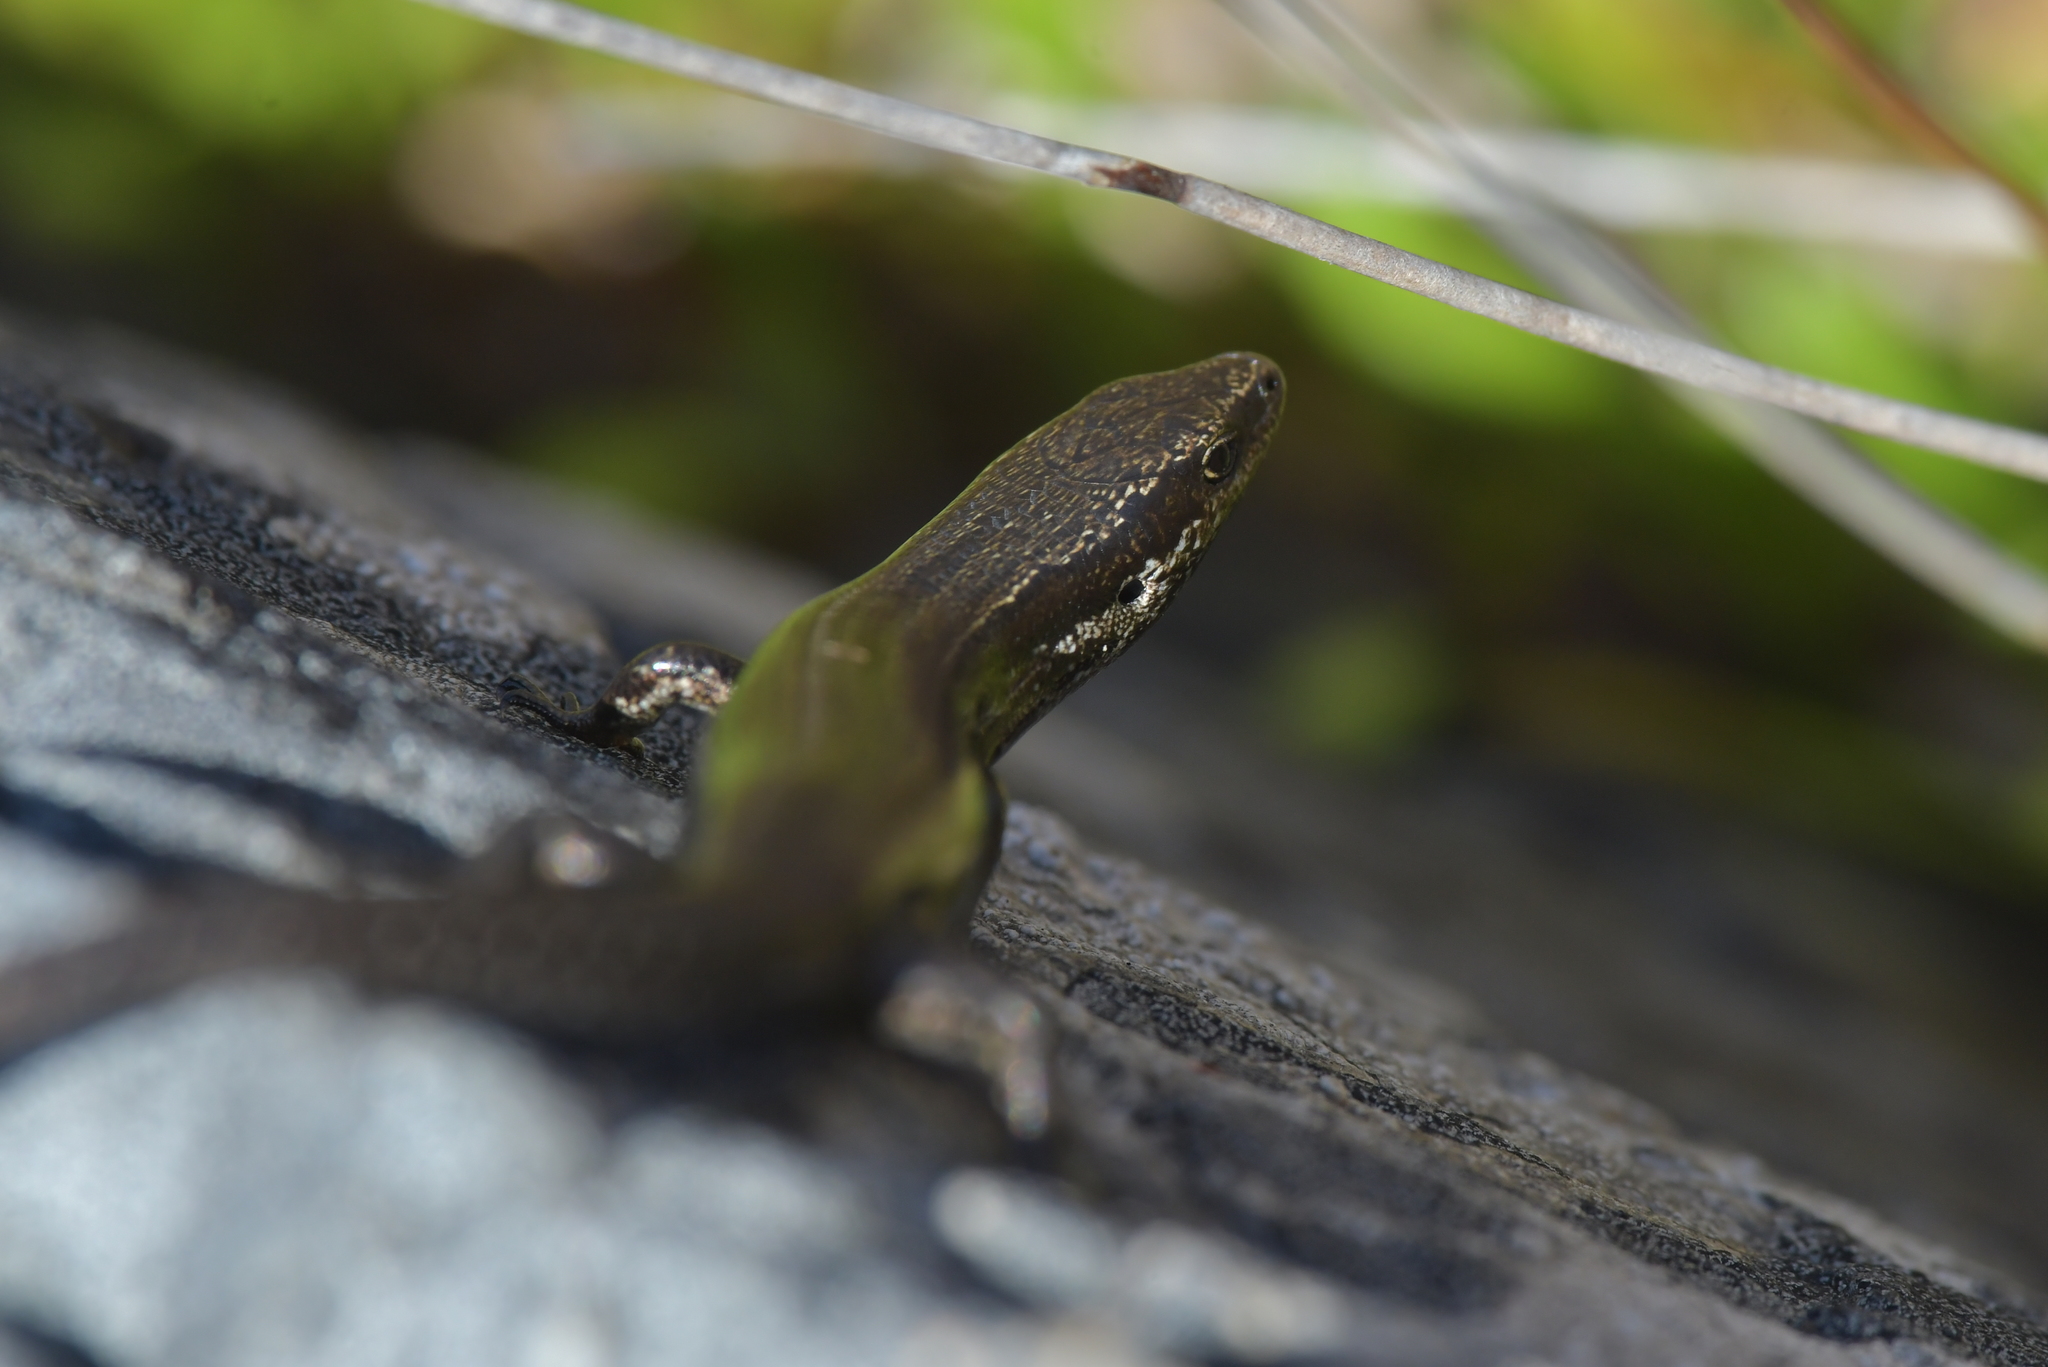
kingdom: Animalia
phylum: Chordata
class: Squamata
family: Scincidae
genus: Oligosoma
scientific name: Oligosoma polychroma
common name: Common new zealand skink
